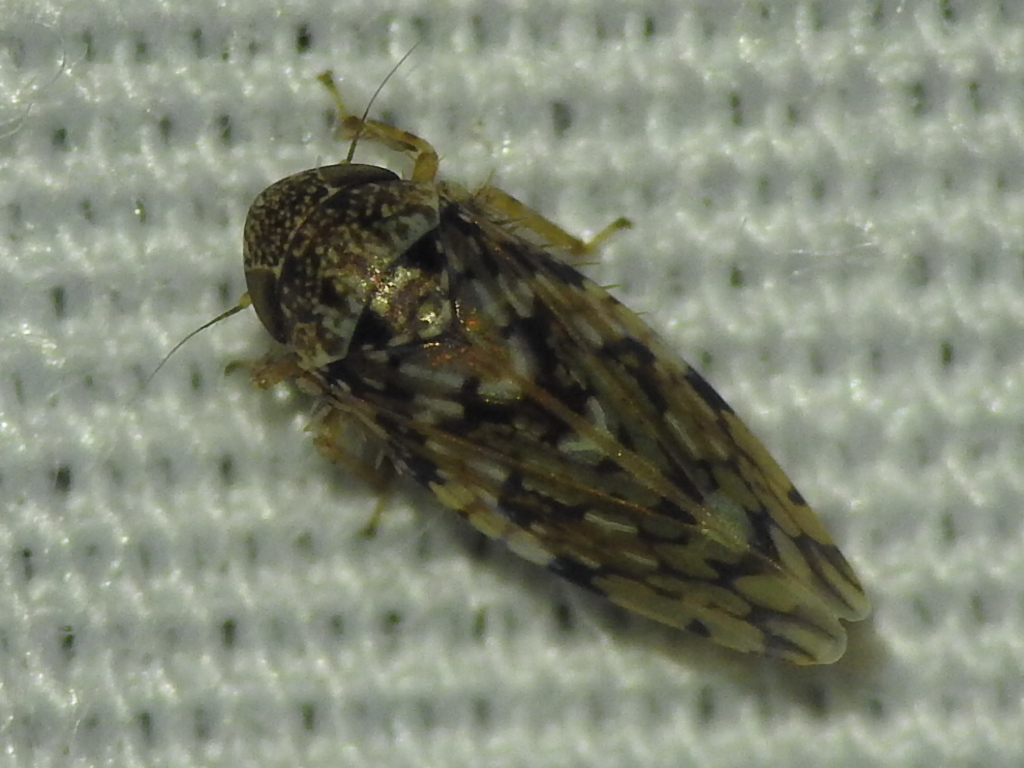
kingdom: Animalia
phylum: Arthropoda
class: Insecta
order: Hemiptera
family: Cicadellidae
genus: Xestocephalus
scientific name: Xestocephalus tessellatus
